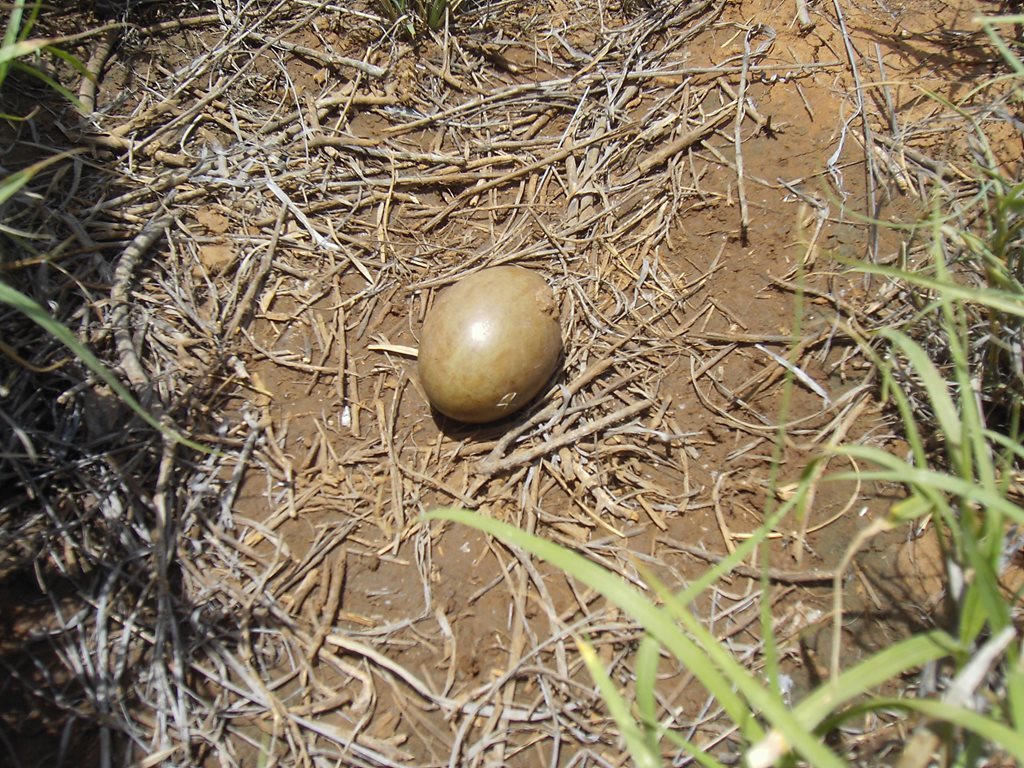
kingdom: Animalia
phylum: Chordata
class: Aves
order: Otidiformes
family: Otididae
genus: Ardeotis
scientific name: Ardeotis australis
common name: Australian bustard
